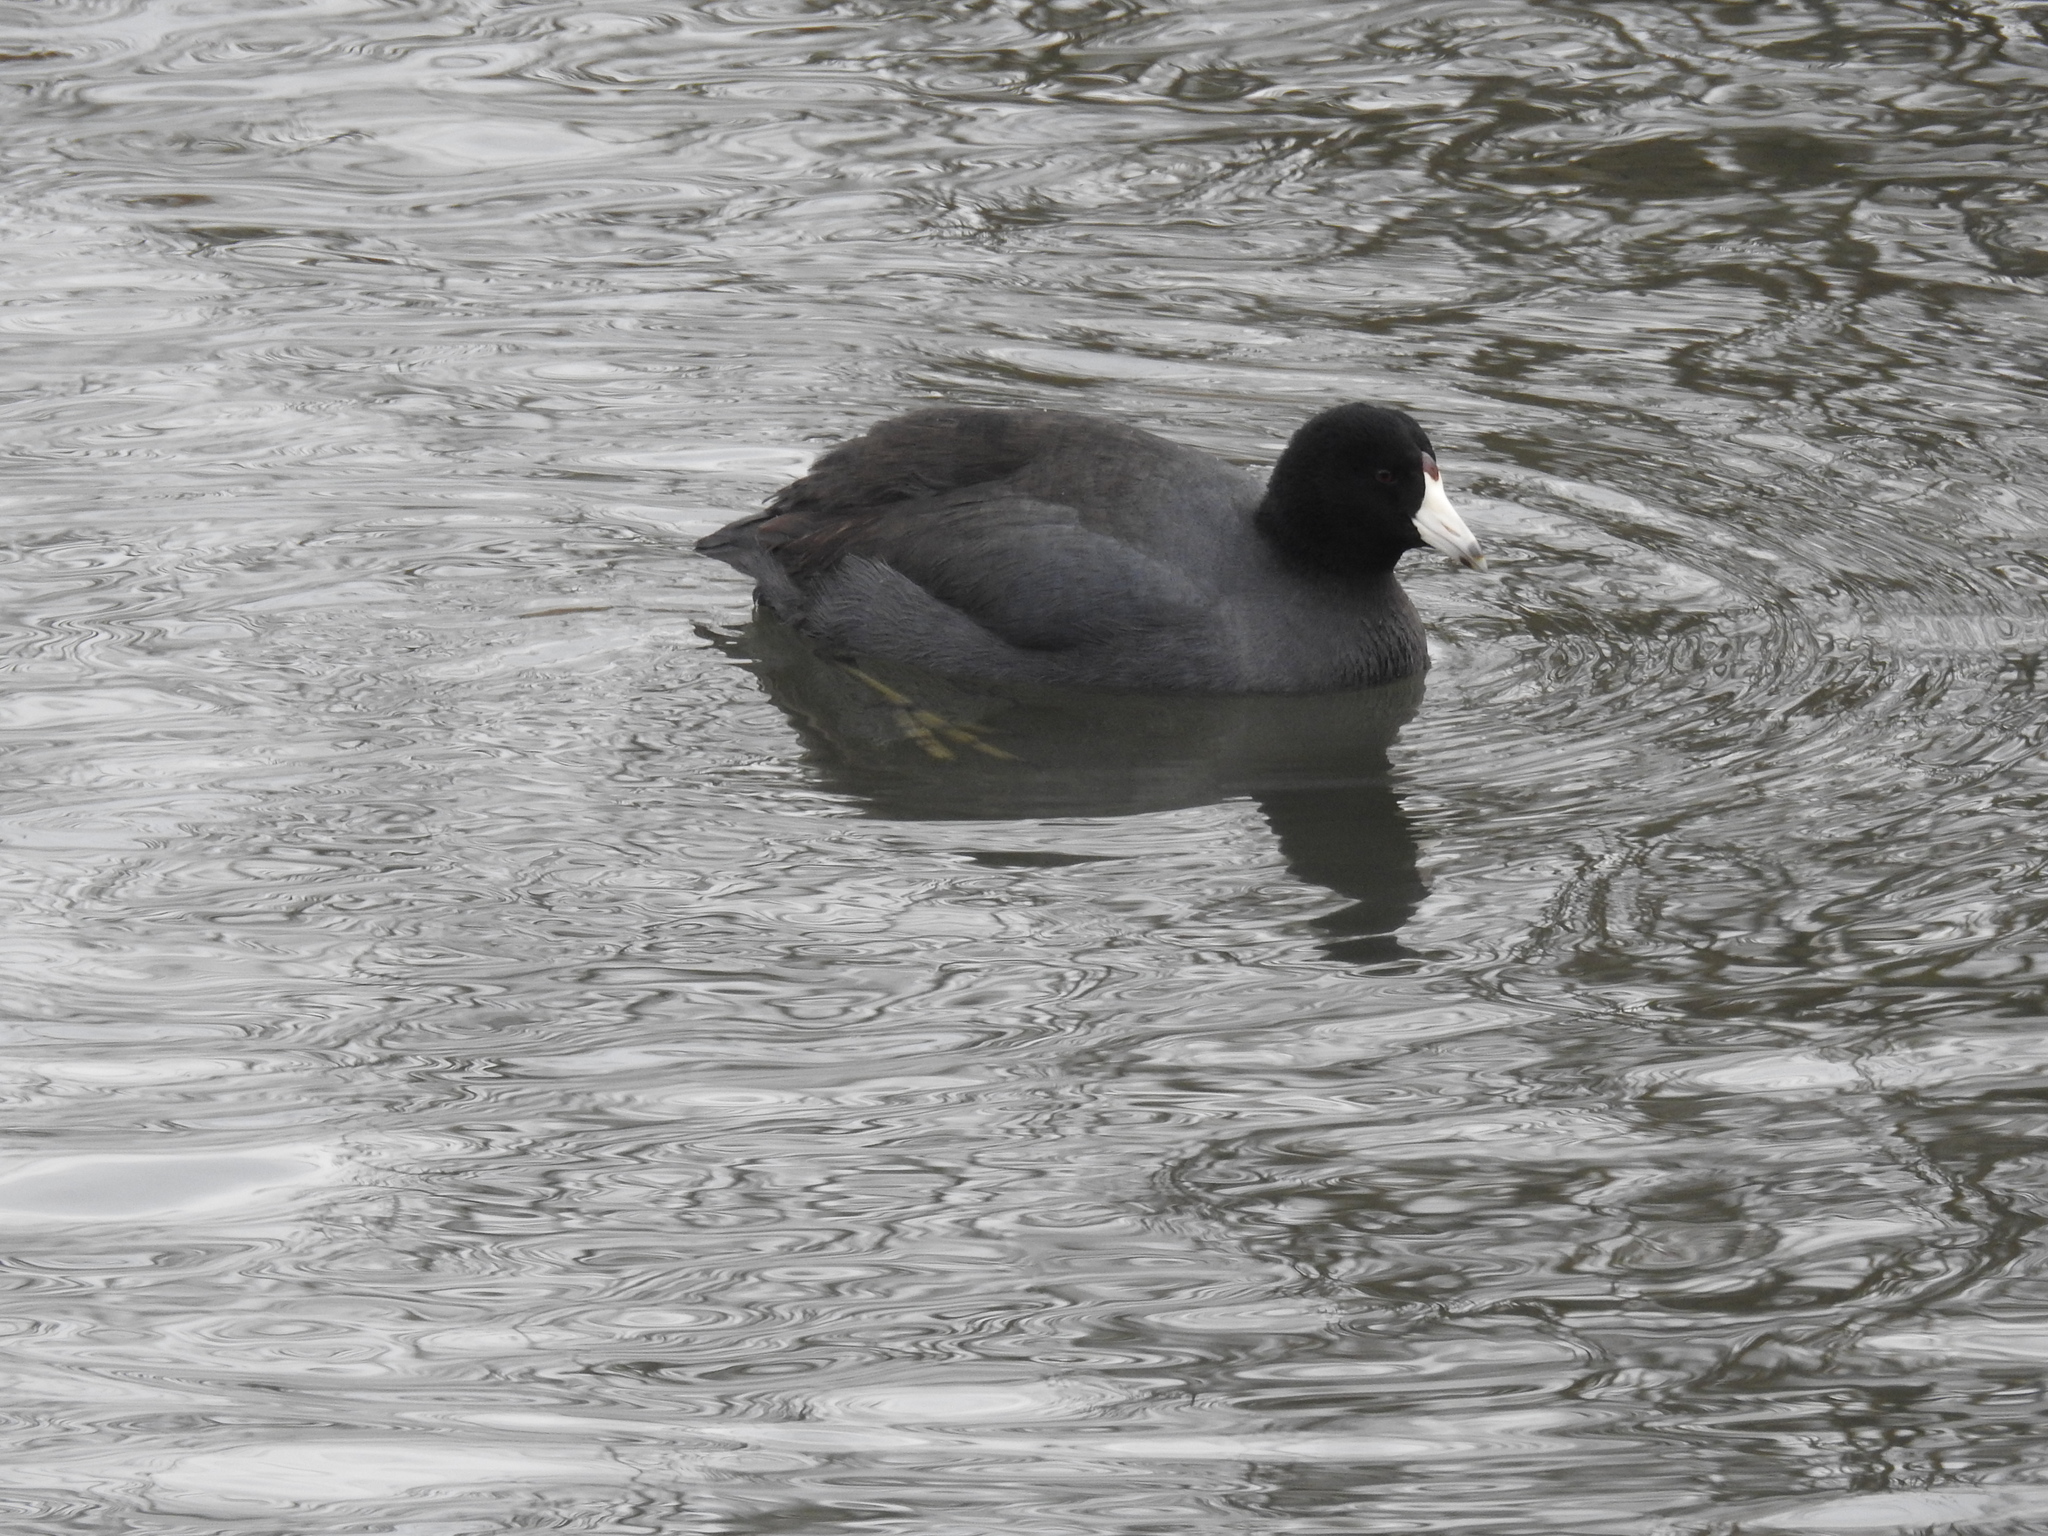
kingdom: Animalia
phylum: Chordata
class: Aves
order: Gruiformes
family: Rallidae
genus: Fulica
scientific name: Fulica americana
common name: American coot
